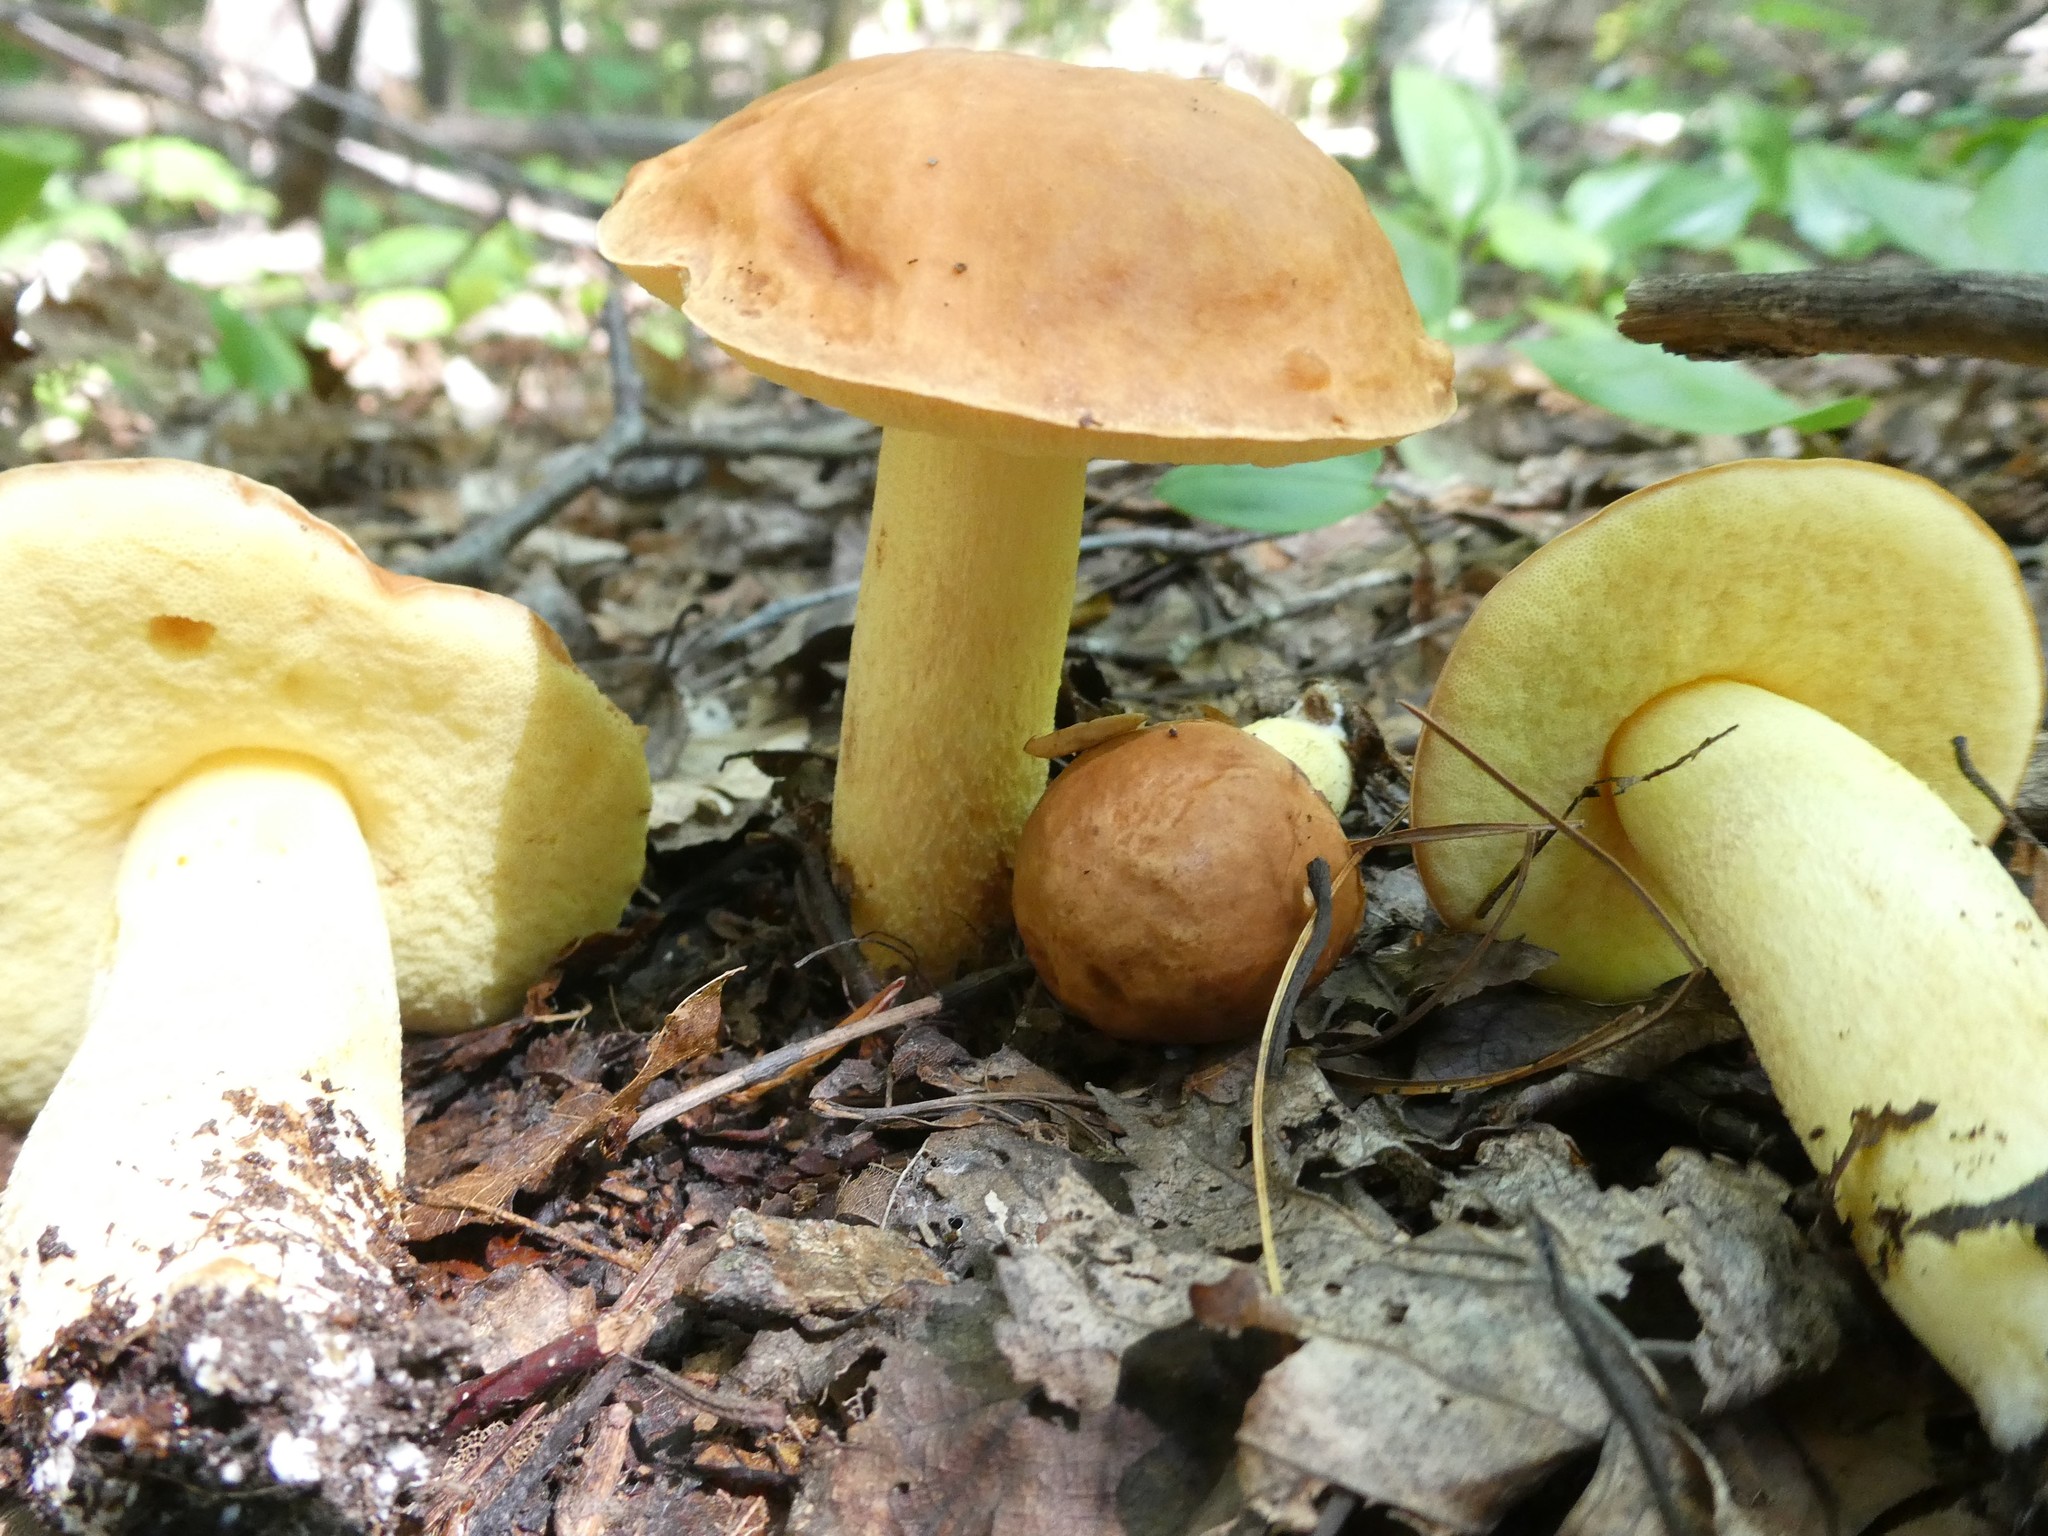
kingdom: Fungi
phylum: Basidiomycota
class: Agaricomycetes
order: Boletales
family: Boletaceae
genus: Hemileccinum
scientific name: Hemileccinum subglabripes
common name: Smoothish-stemmed bolete
